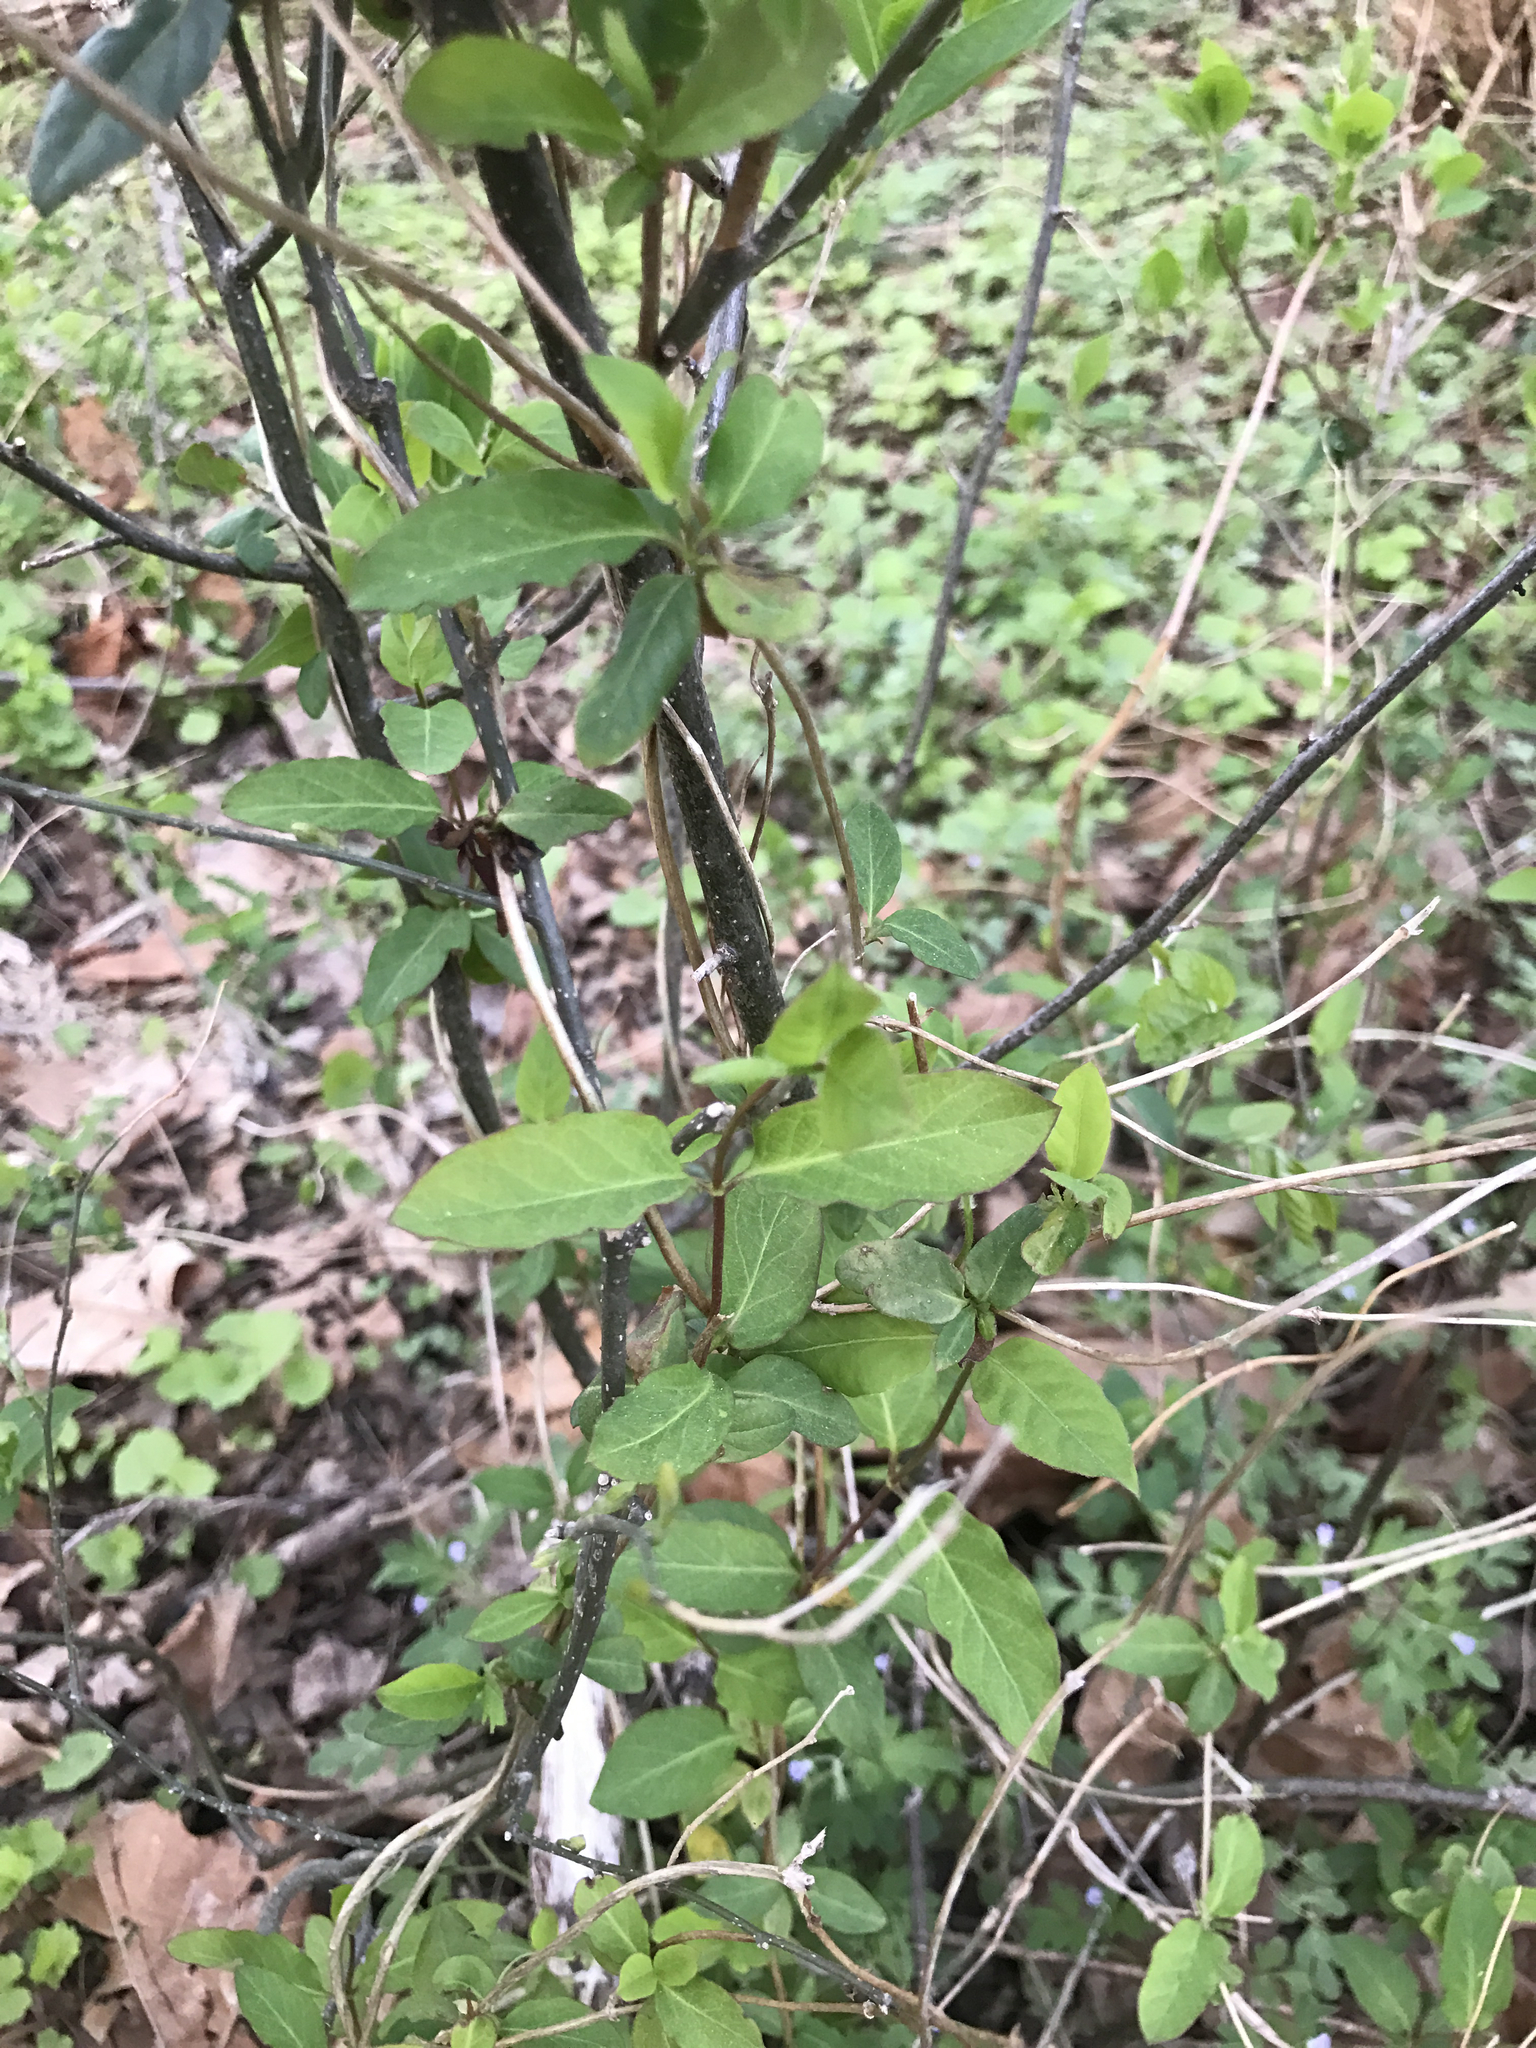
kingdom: Plantae
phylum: Tracheophyta
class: Magnoliopsida
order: Dipsacales
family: Caprifoliaceae
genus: Lonicera
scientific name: Lonicera japonica
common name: Japanese honeysuckle
